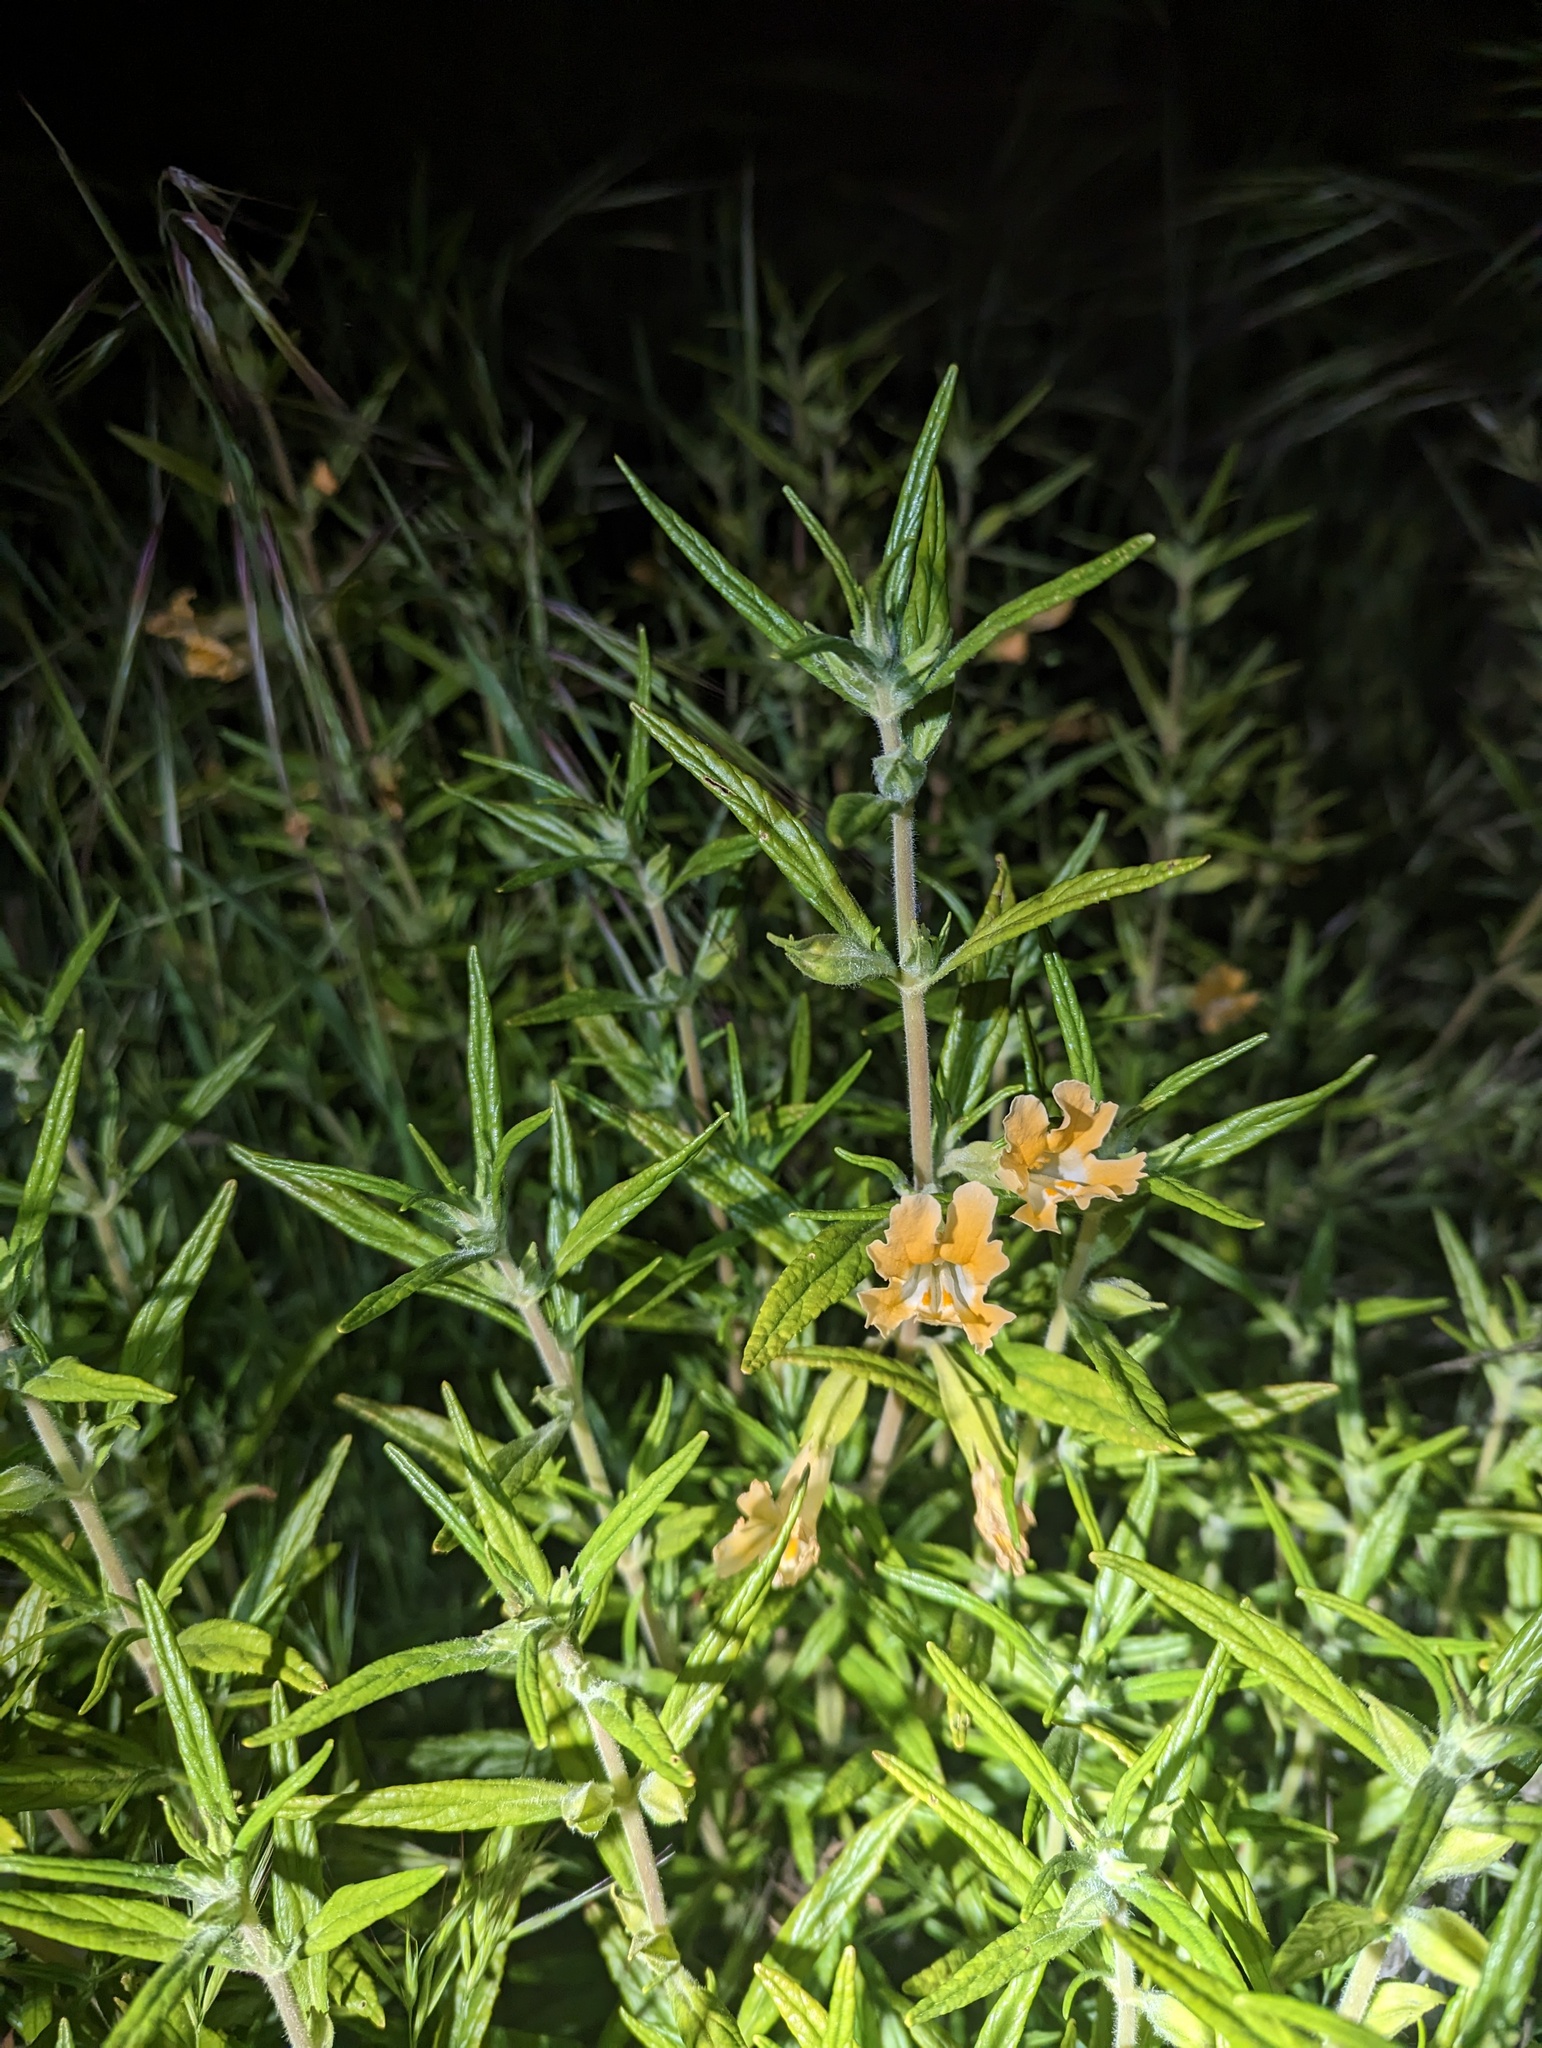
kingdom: Plantae
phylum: Tracheophyta
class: Magnoliopsida
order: Lamiales
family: Phrymaceae
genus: Diplacus
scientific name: Diplacus longiflorus
